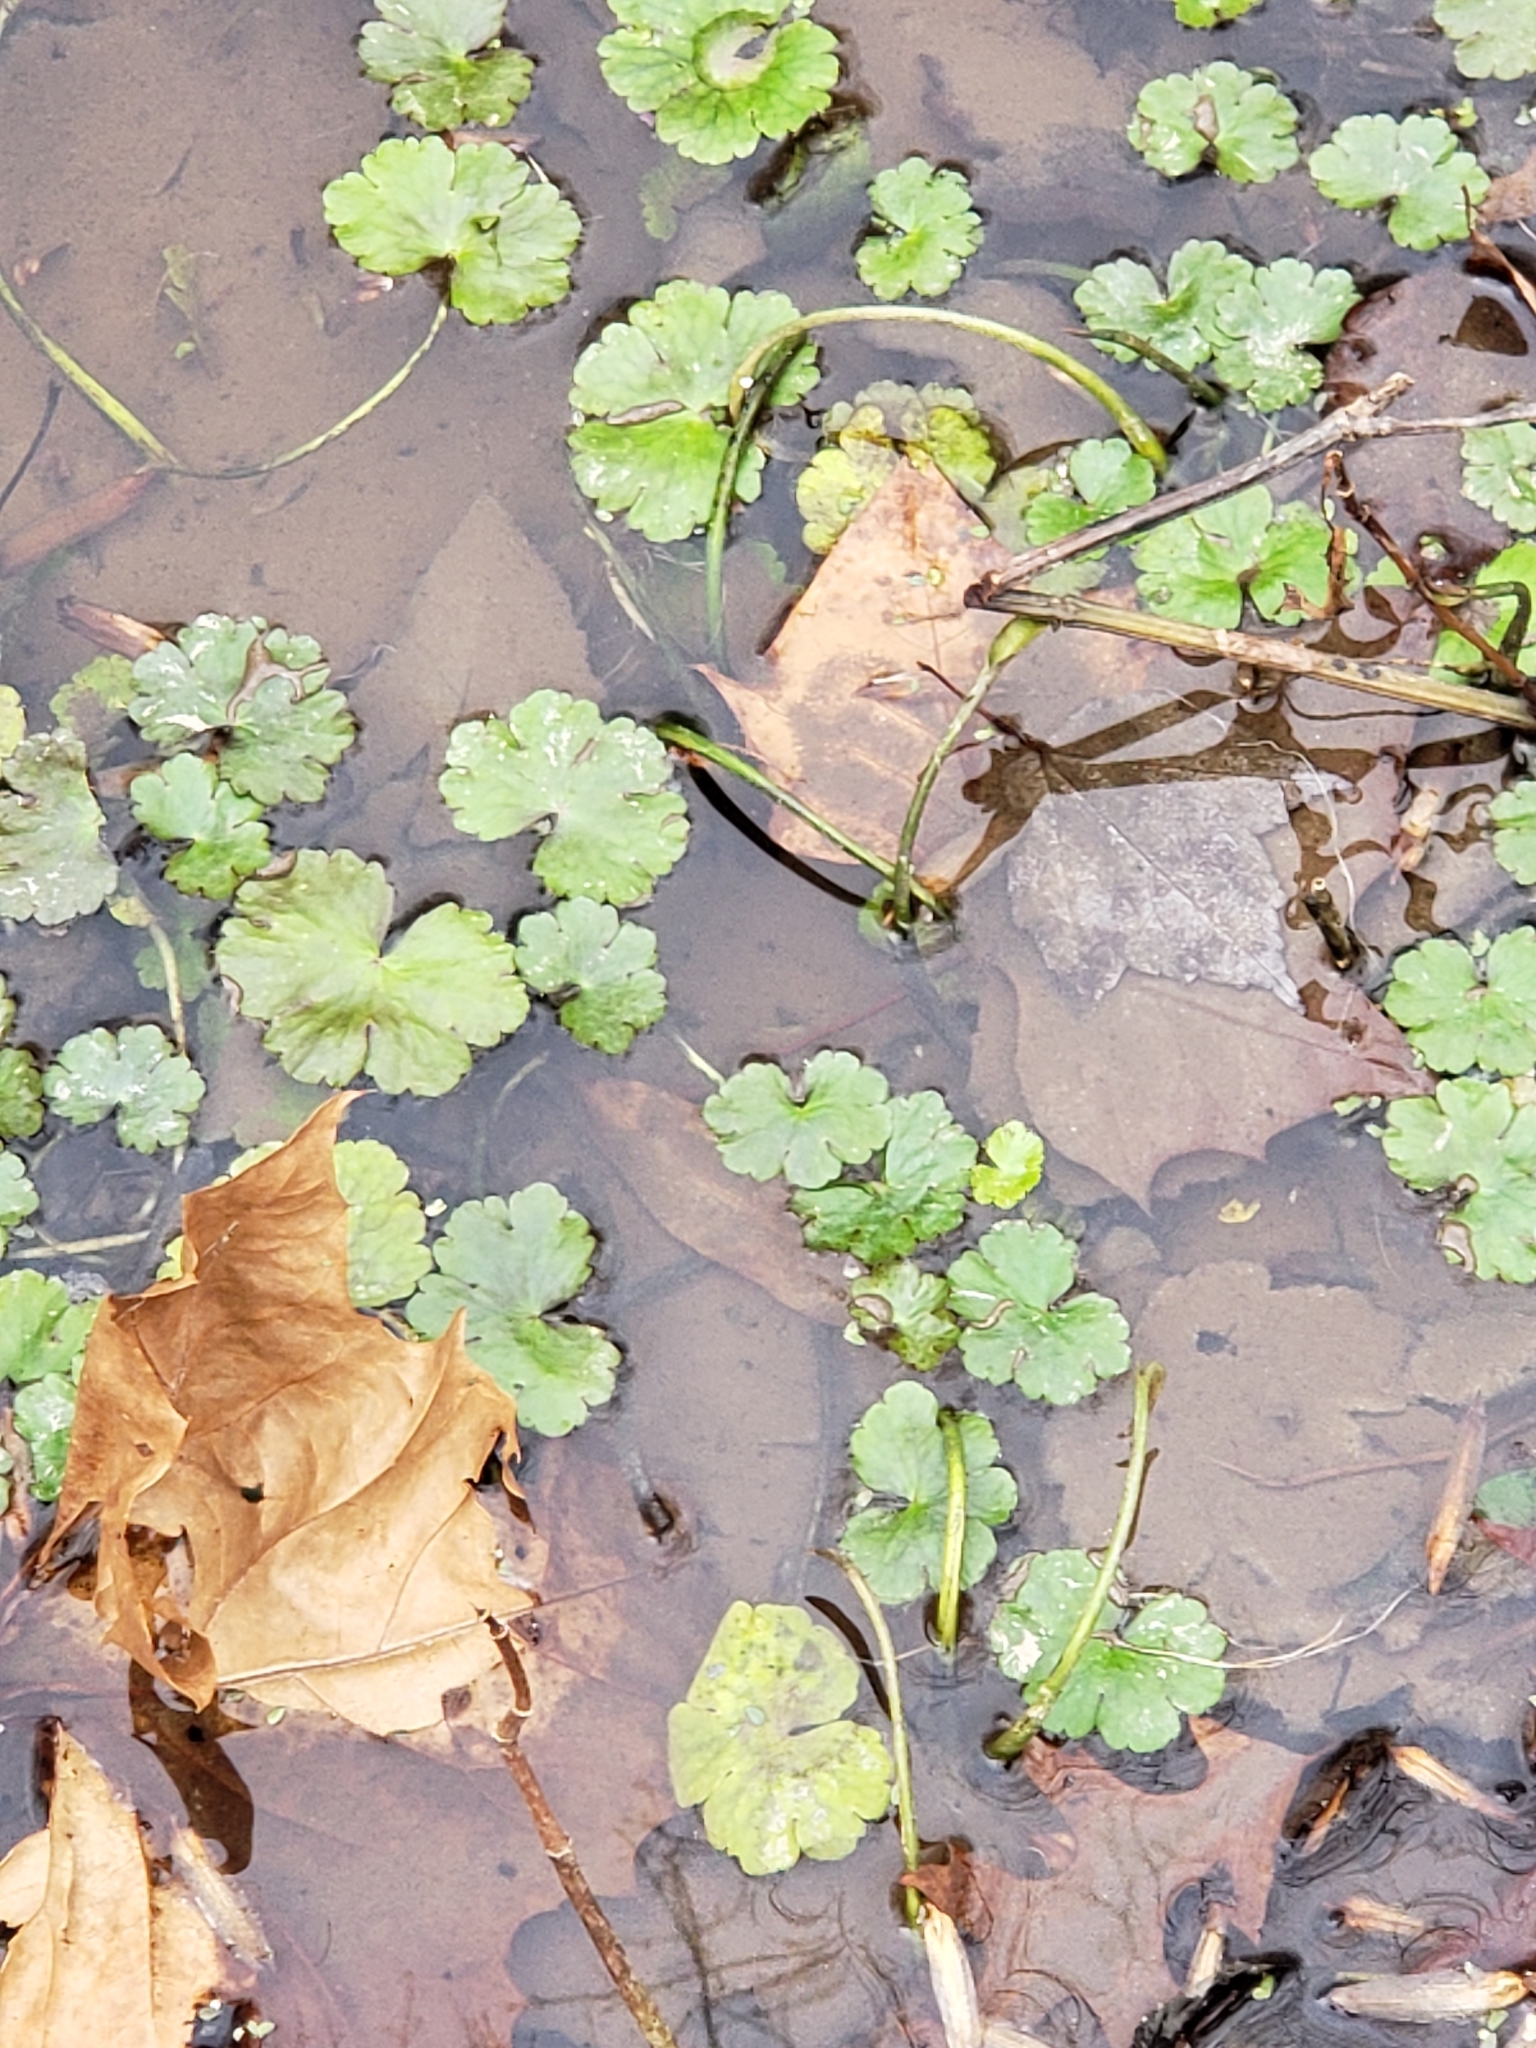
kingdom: Plantae
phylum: Tracheophyta
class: Magnoliopsida
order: Apiales
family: Araliaceae
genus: Hydrocotyle
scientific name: Hydrocotyle ranunculoides
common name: Floating pennywort
